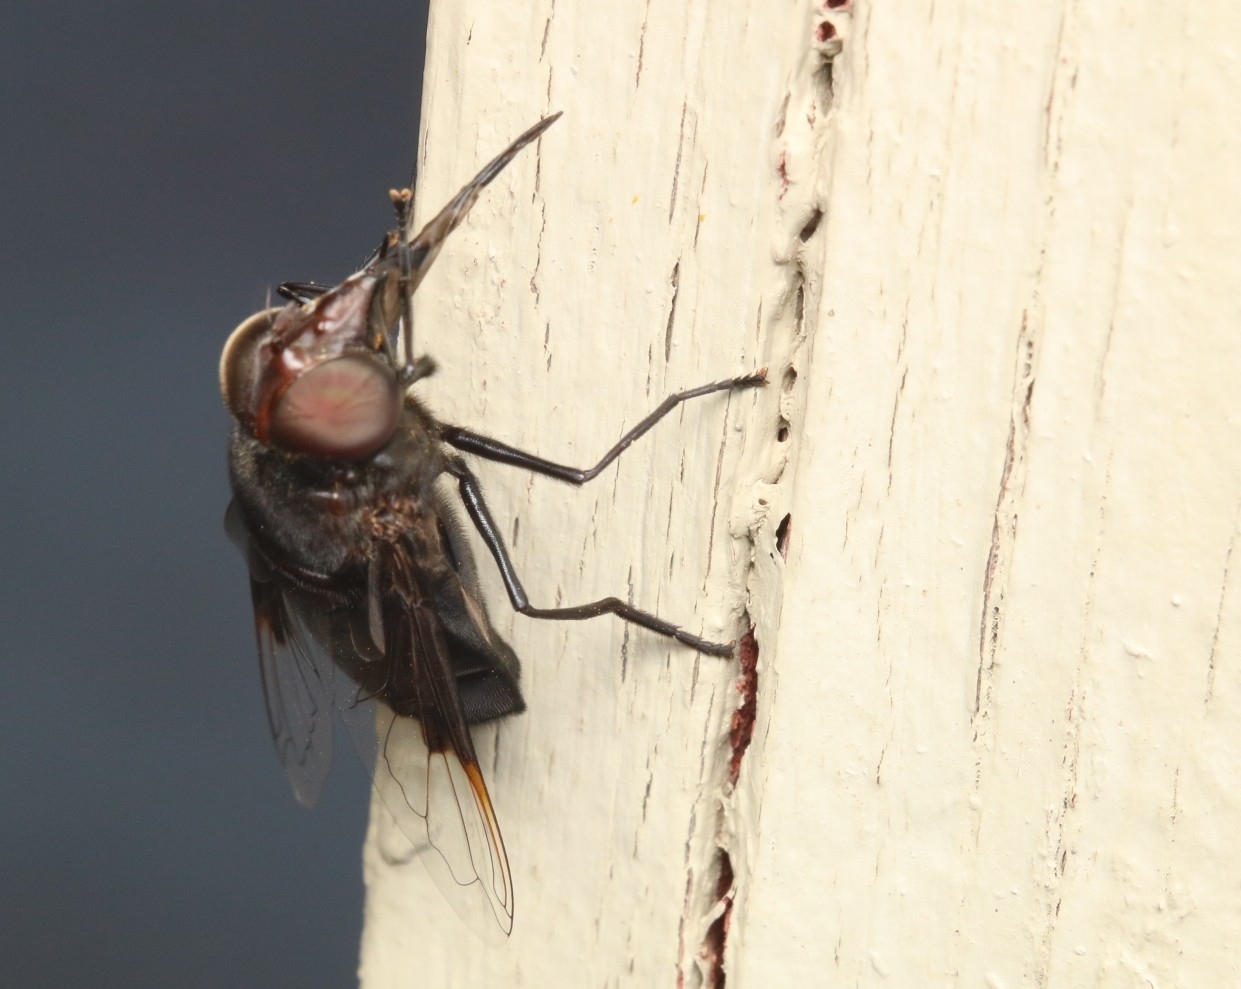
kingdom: Animalia
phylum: Arthropoda
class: Insecta
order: Diptera
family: Syrphidae
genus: Copestylum
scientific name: Copestylum mexicanum
